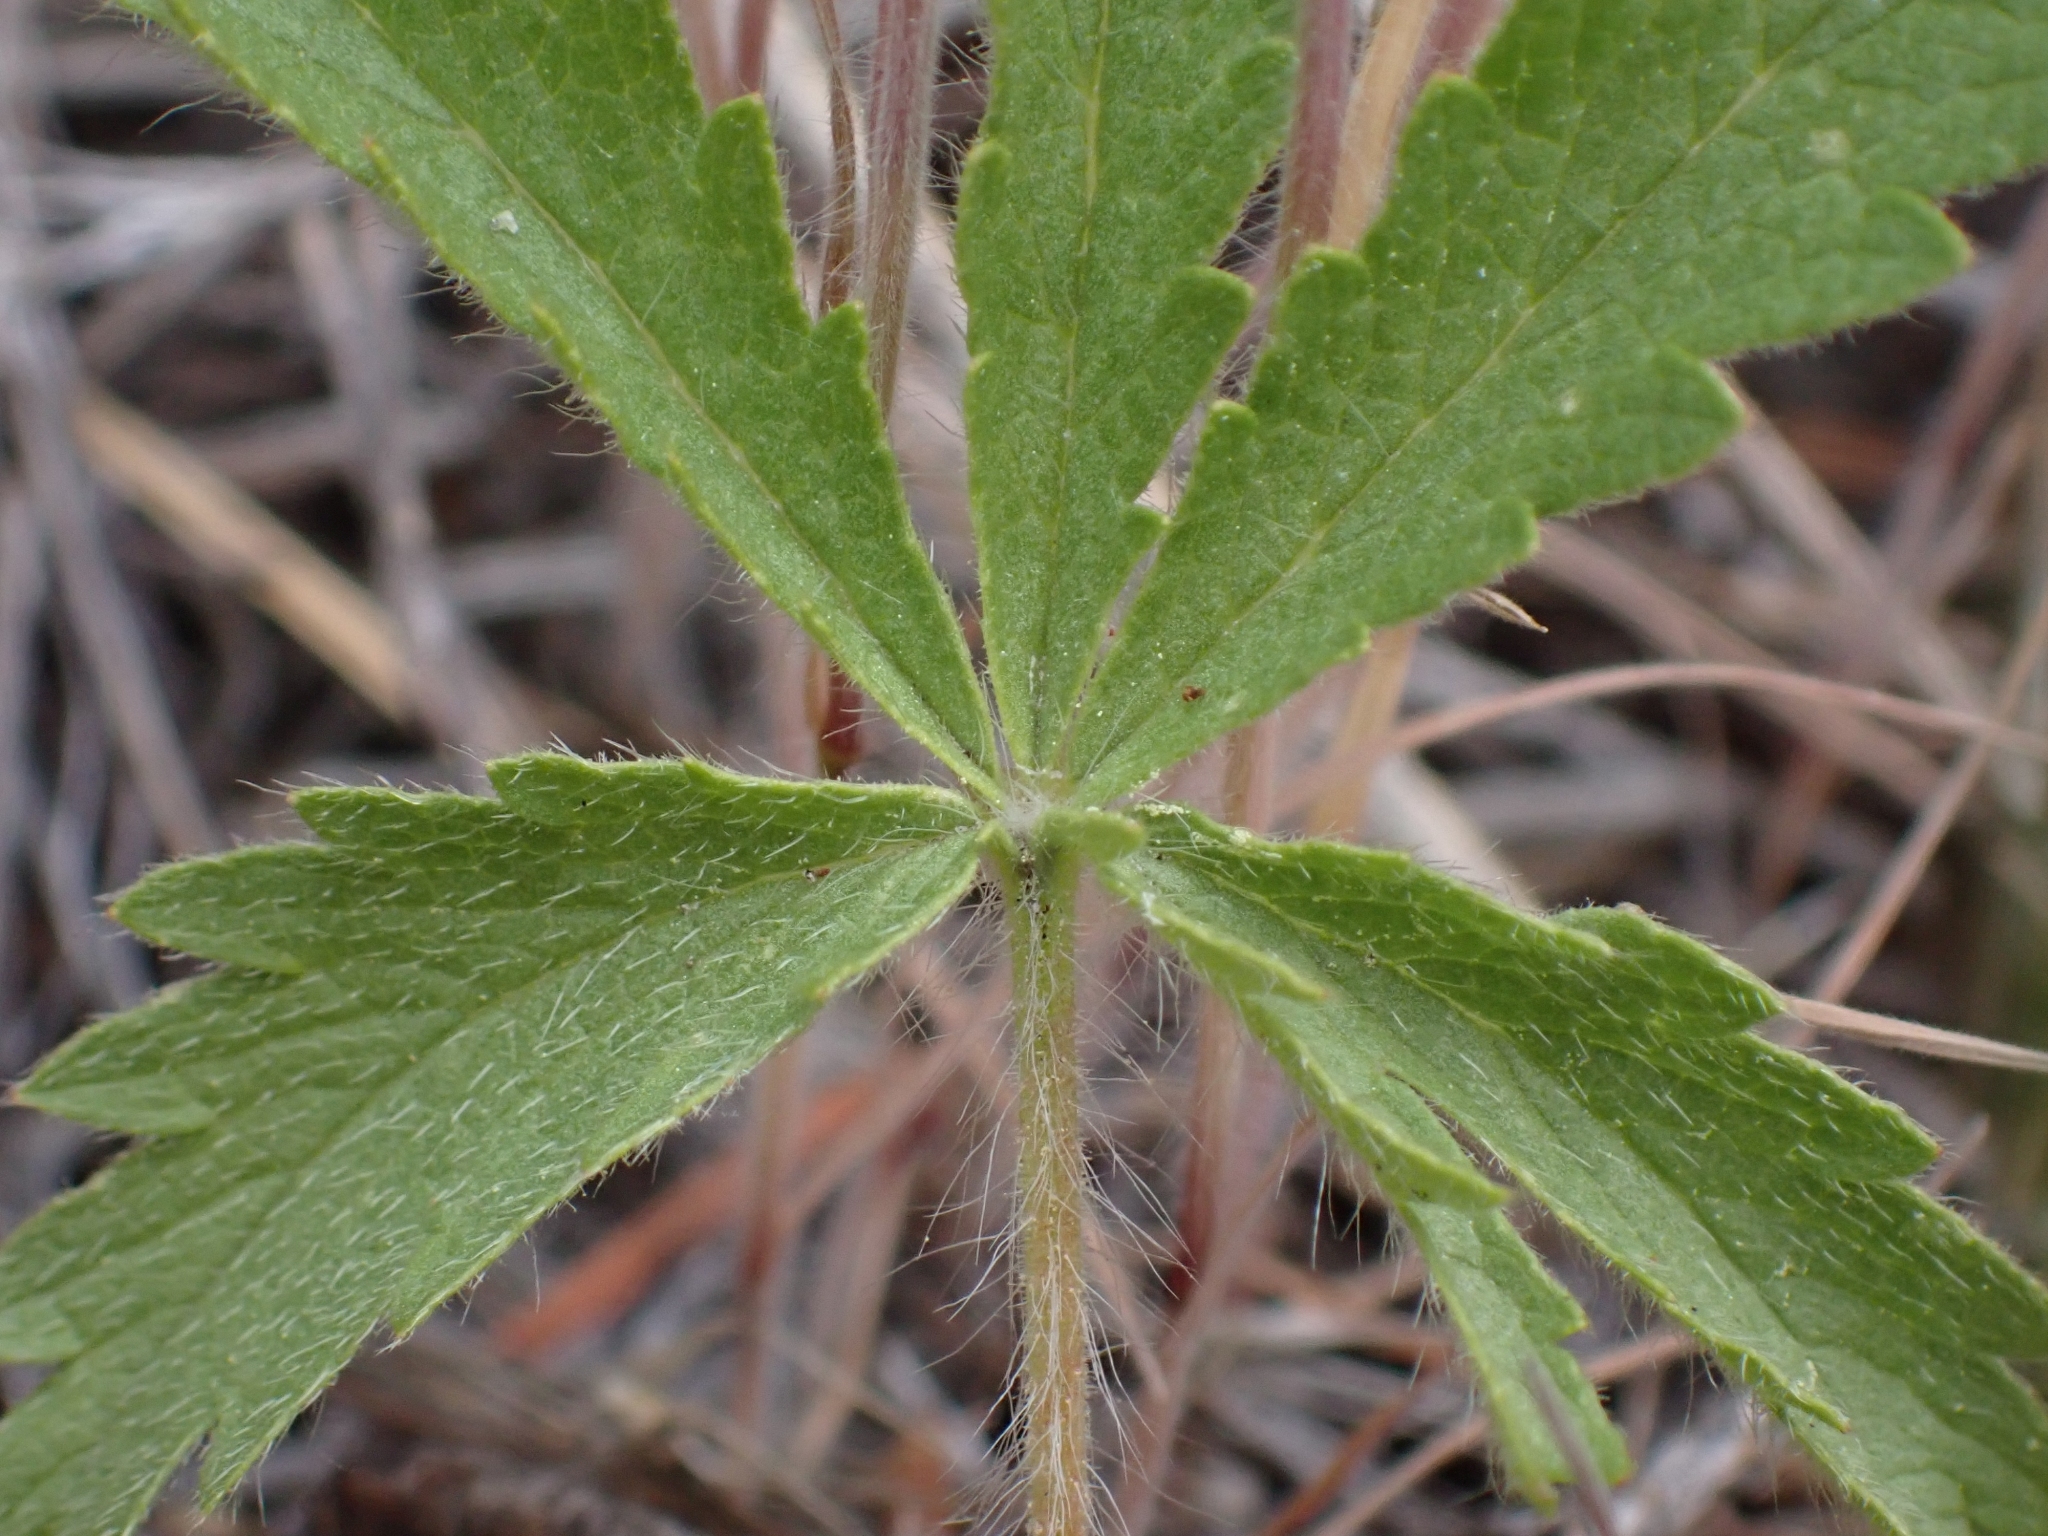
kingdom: Plantae
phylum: Tracheophyta
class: Magnoliopsida
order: Rosales
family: Rosaceae
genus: Potentilla
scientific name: Potentilla recta
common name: Sulphur cinquefoil
